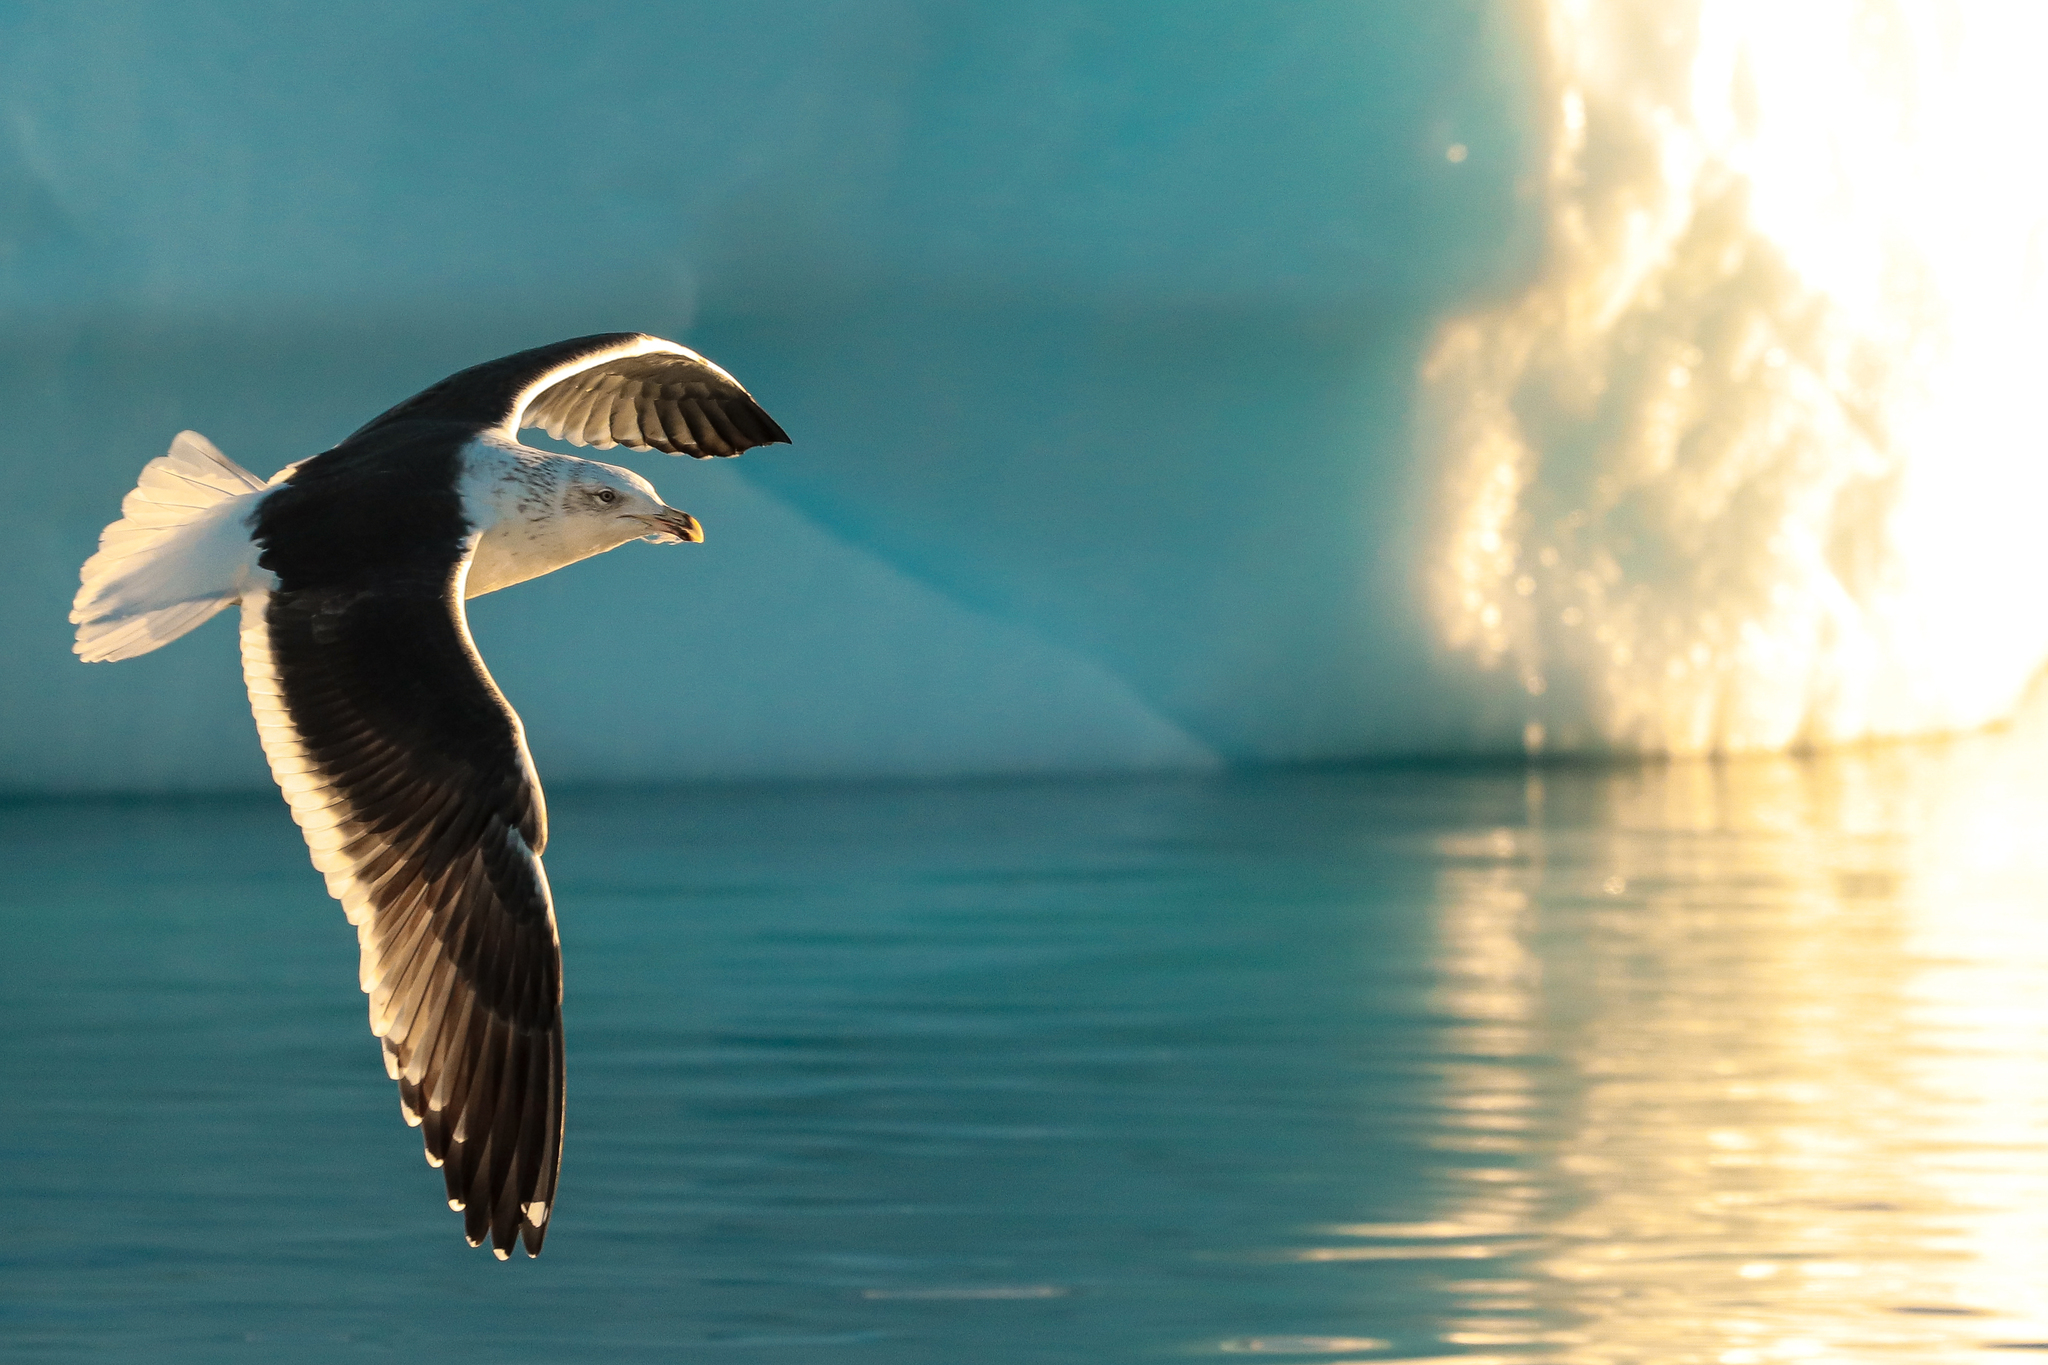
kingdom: Animalia
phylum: Chordata
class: Aves
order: Charadriiformes
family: Laridae
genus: Larus
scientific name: Larus dominicanus
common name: Kelp gull
